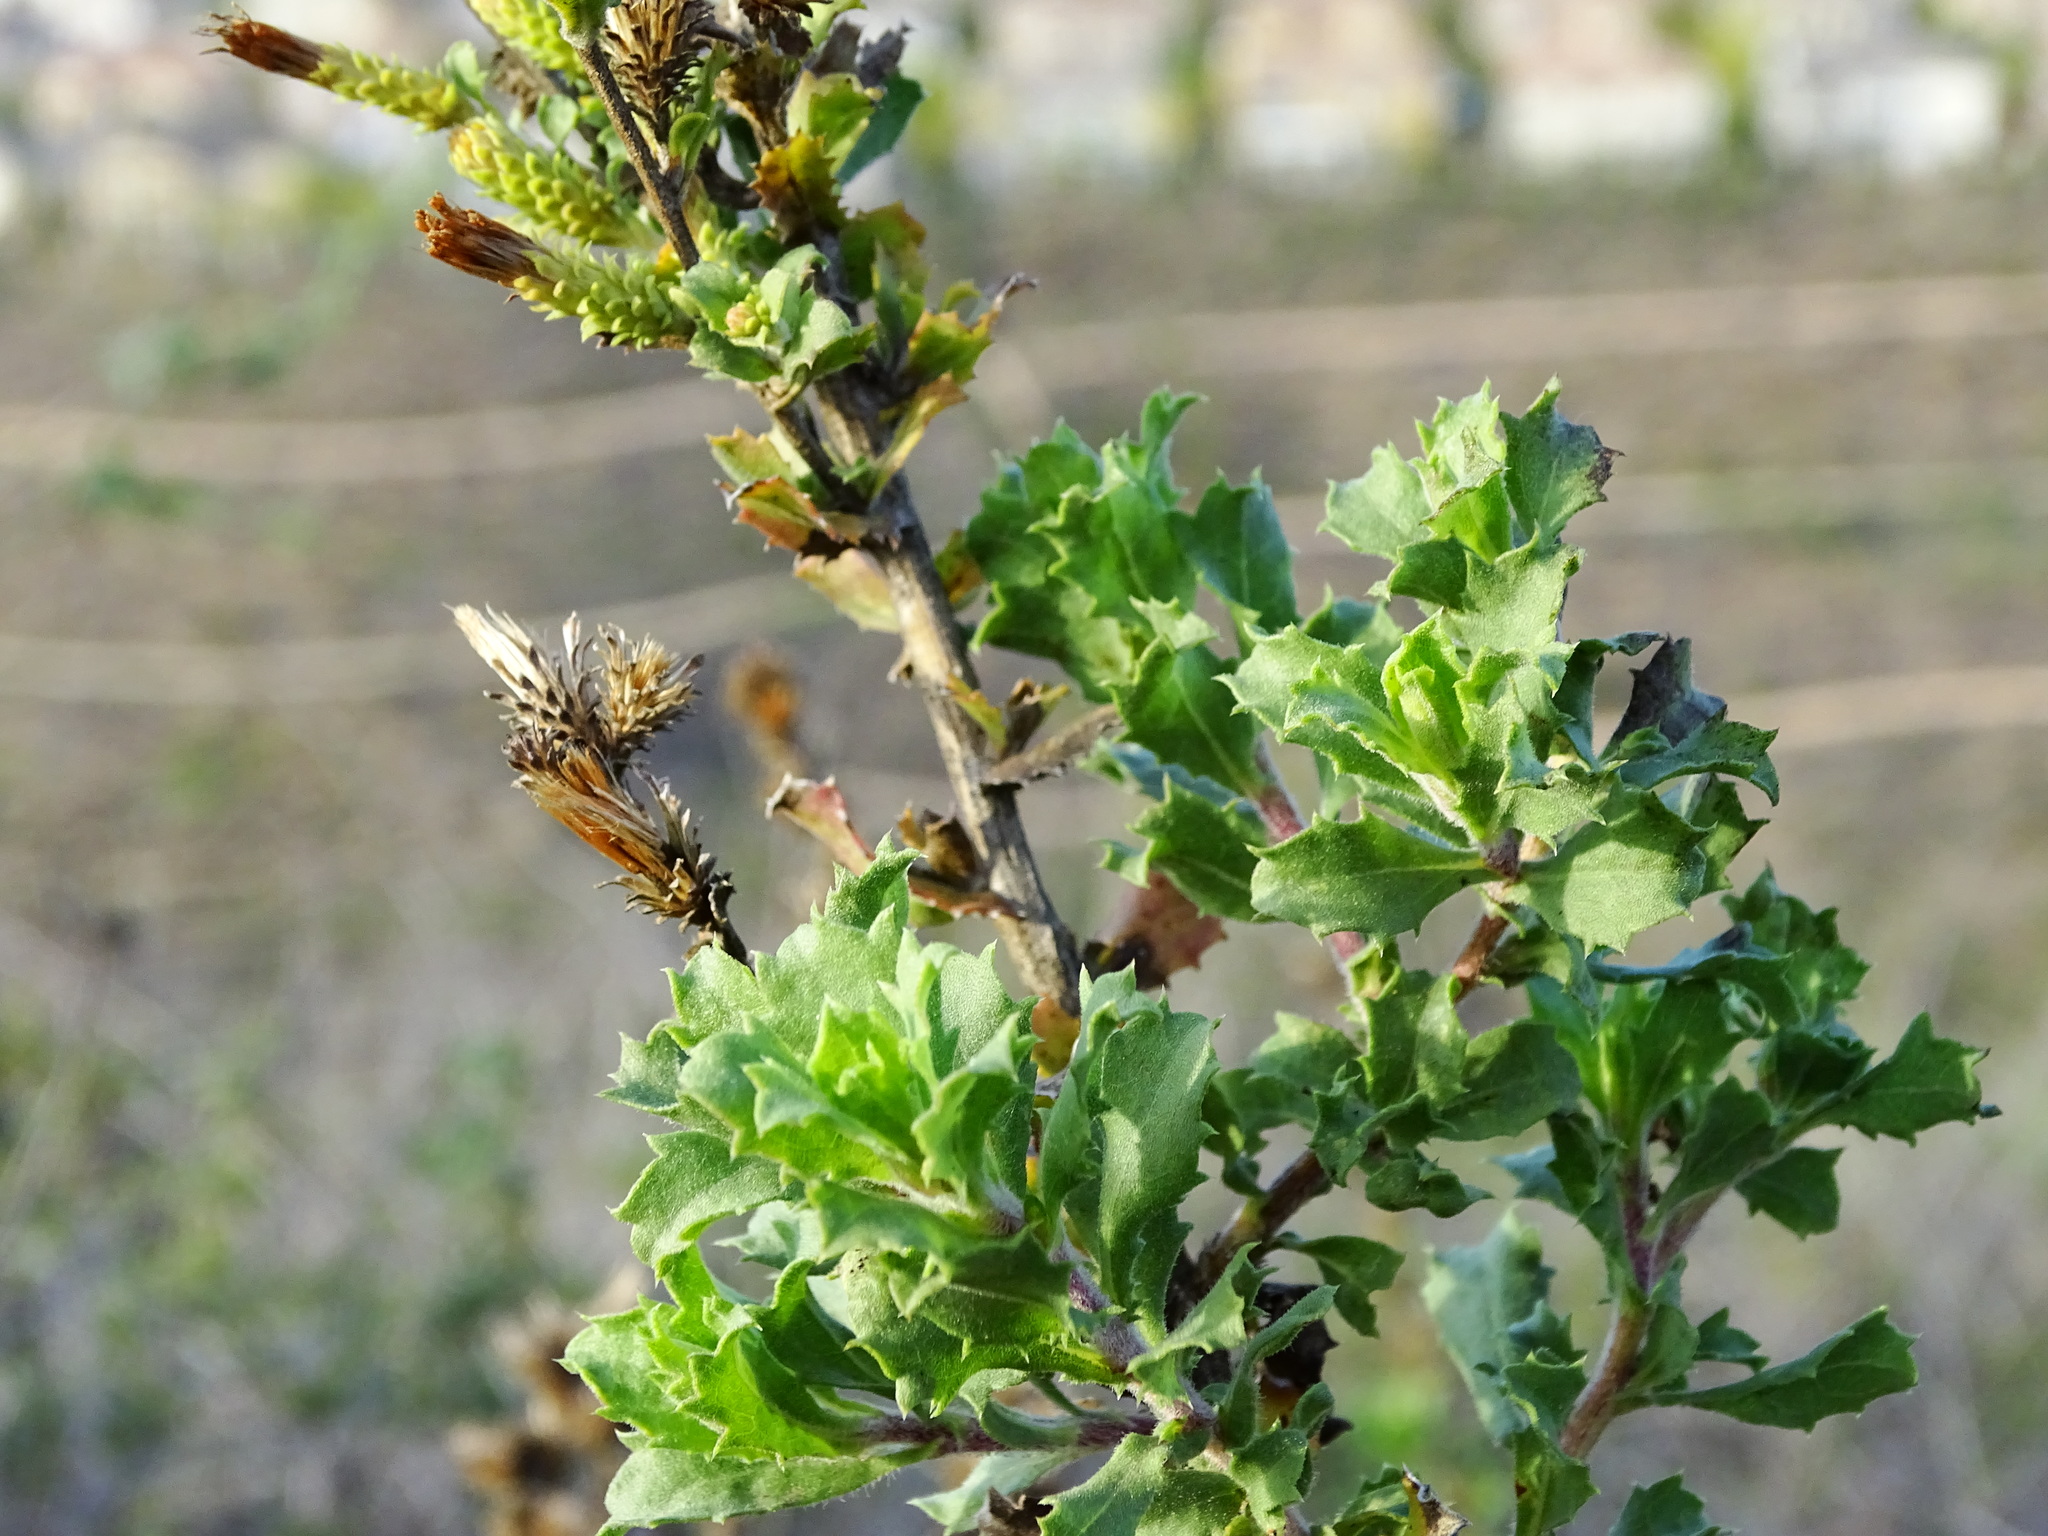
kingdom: Plantae
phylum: Tracheophyta
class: Magnoliopsida
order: Asterales
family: Asteraceae
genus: Hazardia
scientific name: Hazardia squarrosa
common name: Saw-tooth goldenbush
